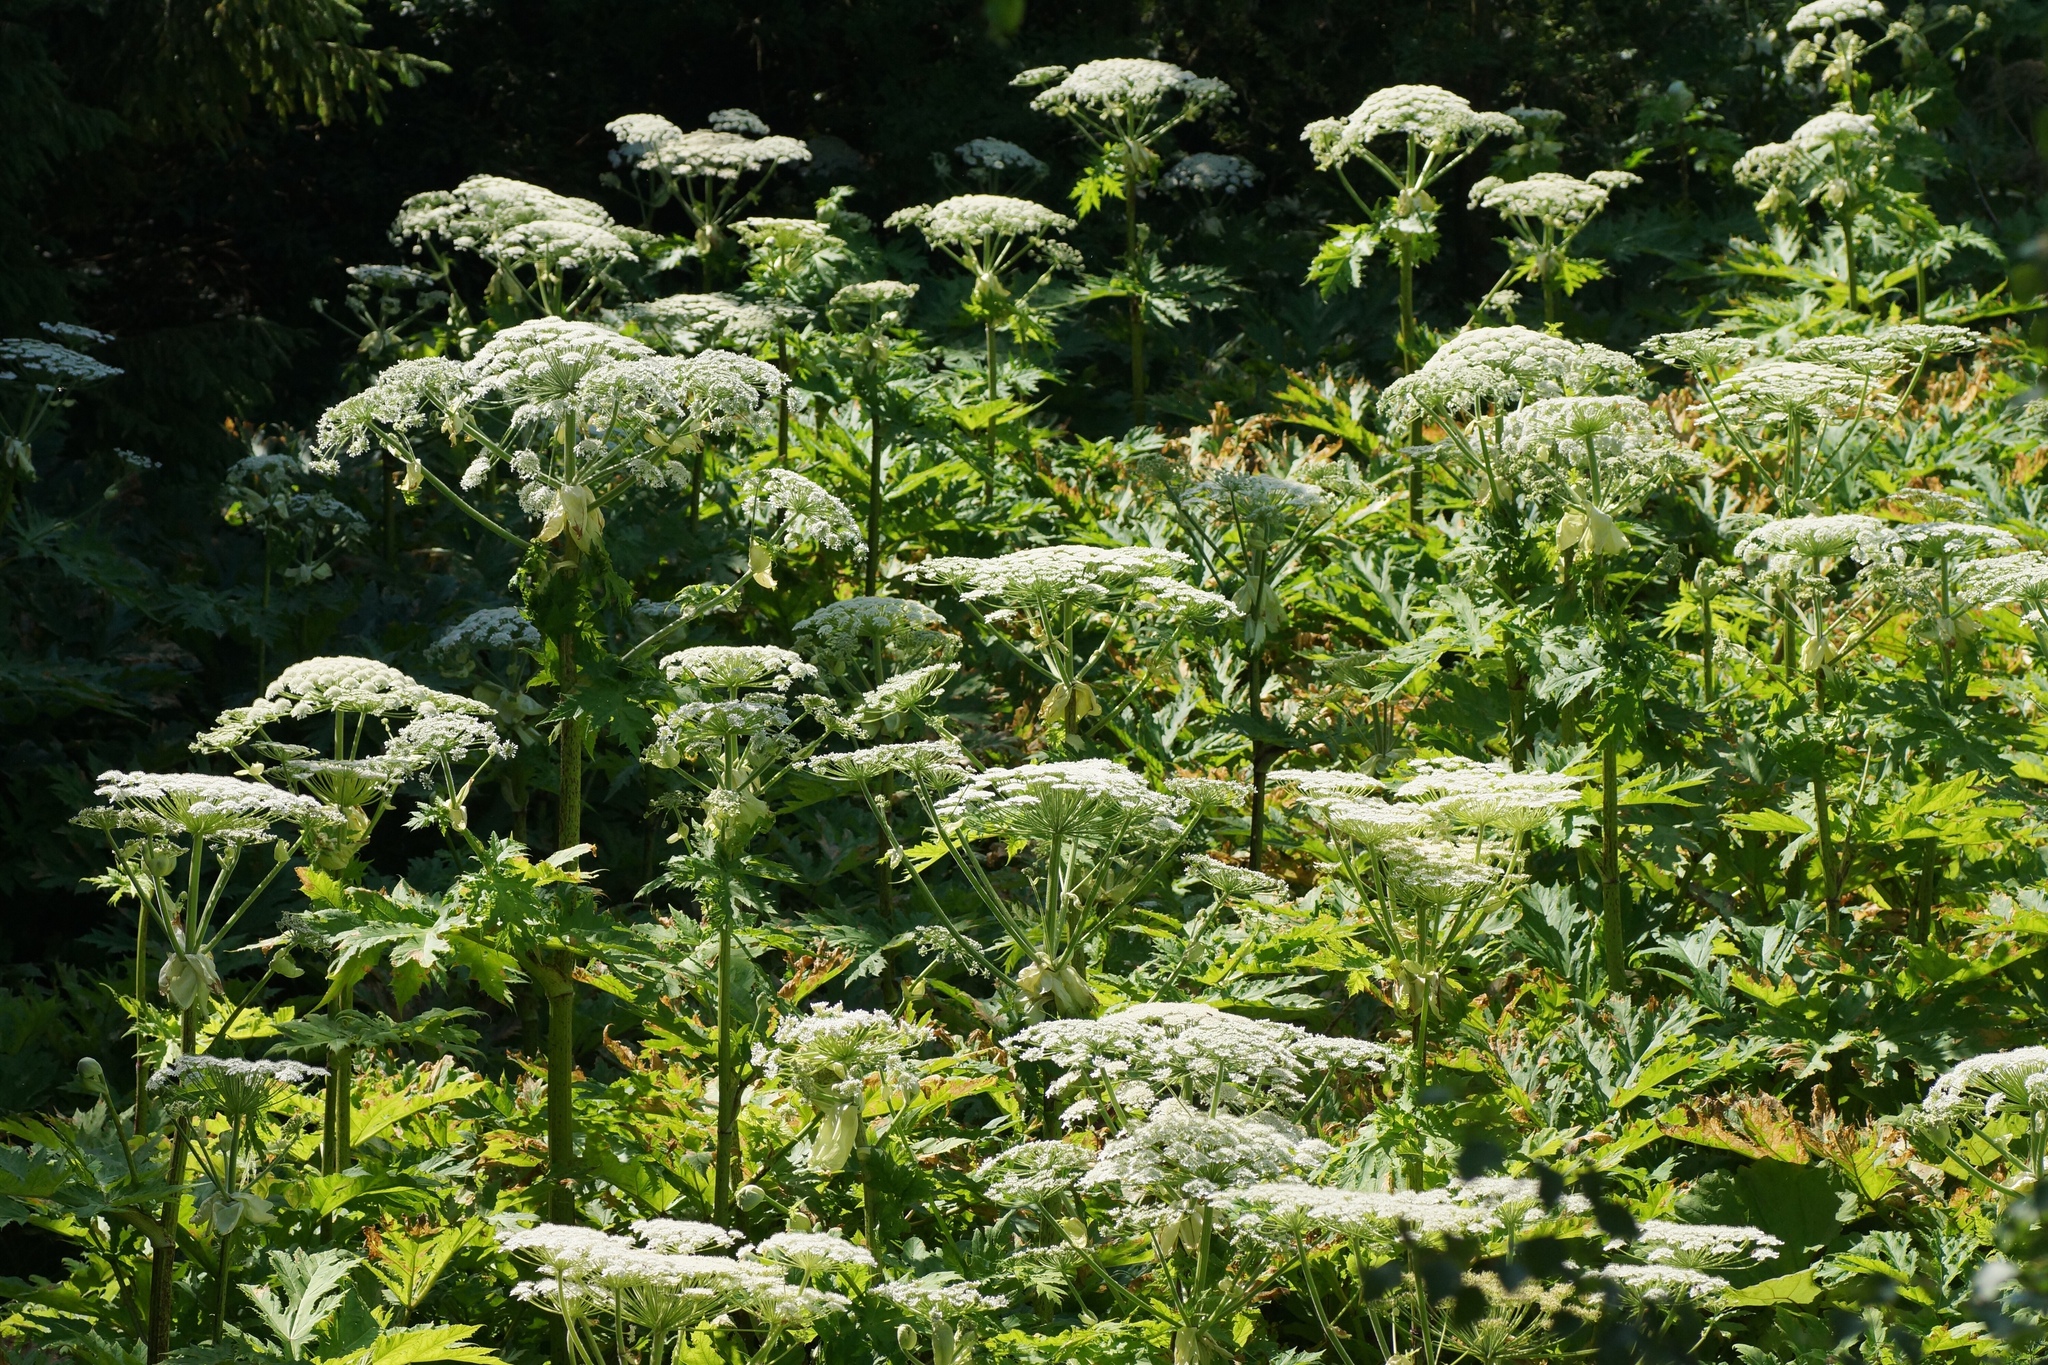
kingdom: Plantae
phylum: Tracheophyta
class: Magnoliopsida
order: Apiales
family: Apiaceae
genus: Heracleum
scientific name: Heracleum mantegazzianum
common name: Giant hogweed
